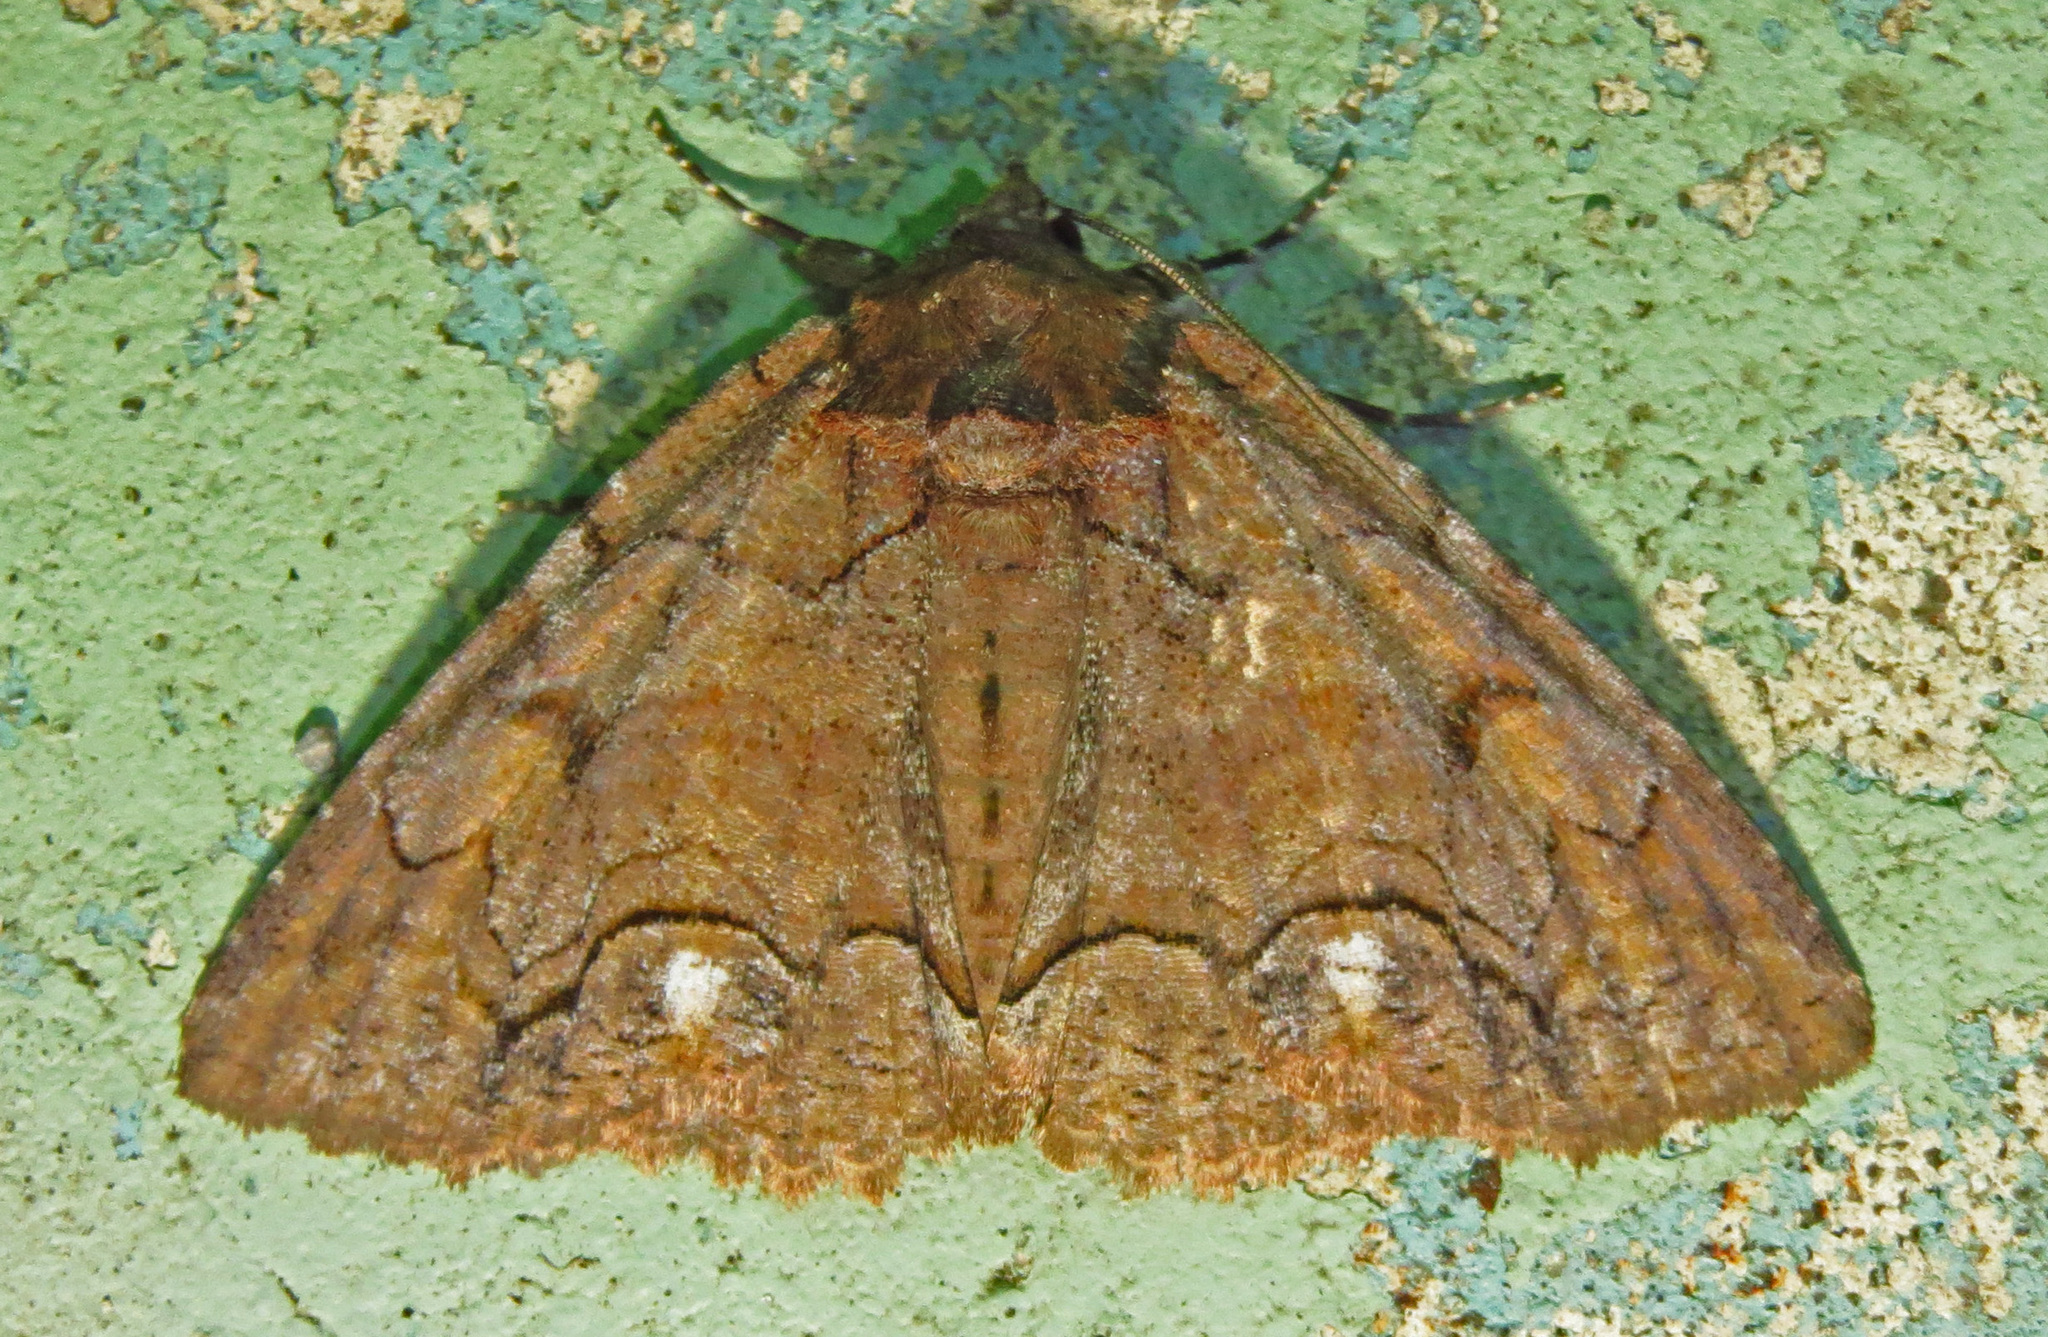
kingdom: Animalia
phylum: Arthropoda
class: Insecta
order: Lepidoptera
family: Erebidae
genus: Zale
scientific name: Zale metatoides
